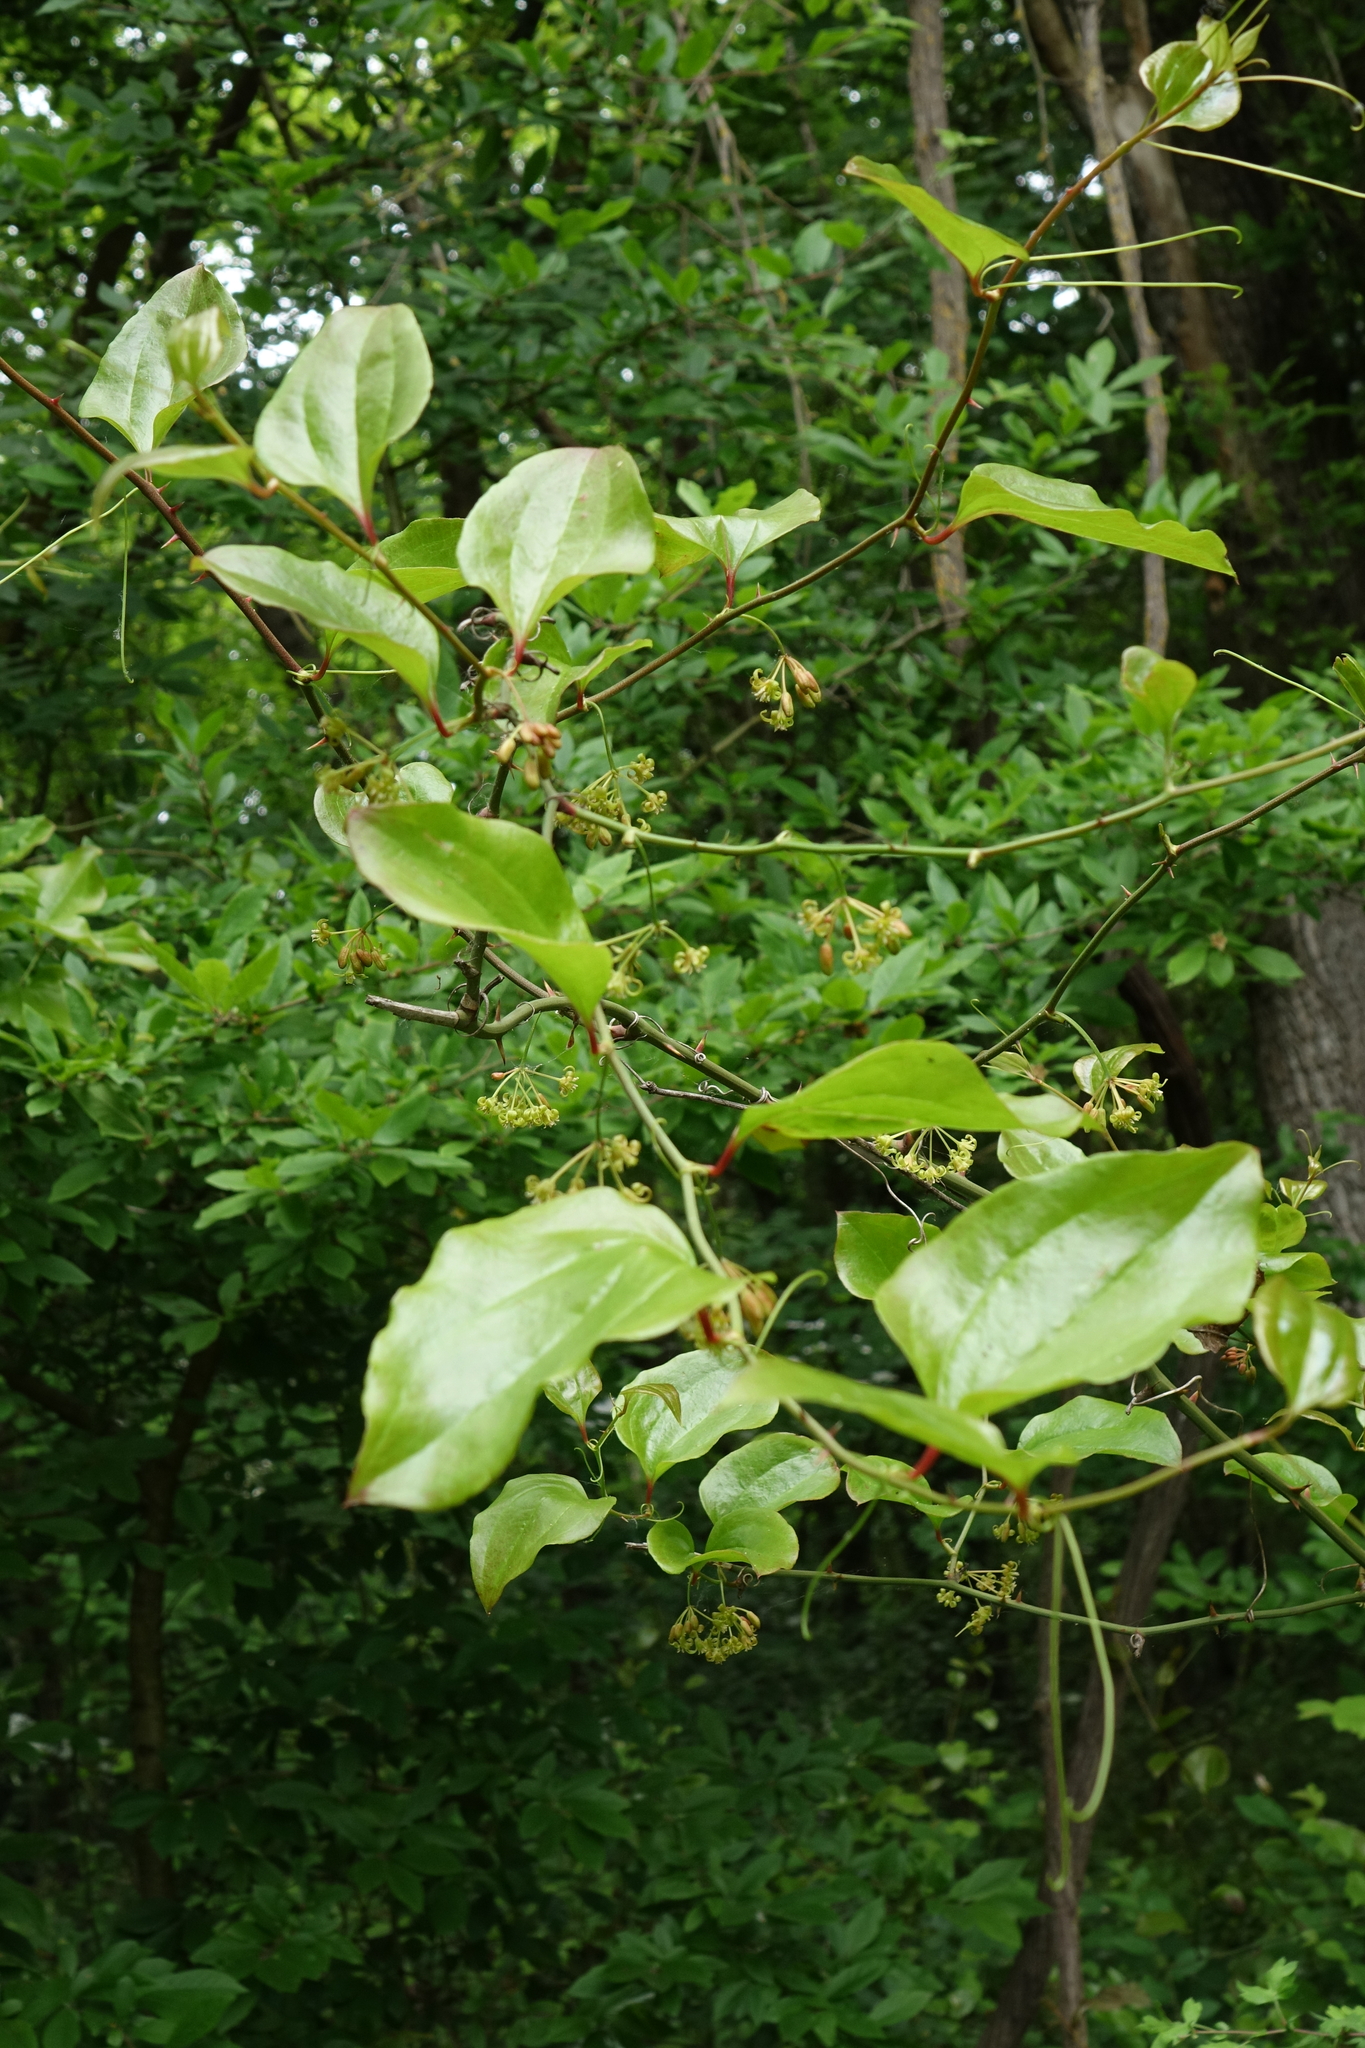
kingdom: Plantae
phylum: Tracheophyta
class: Liliopsida
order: Liliales
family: Smilacaceae
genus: Smilax
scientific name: Smilax excelsa
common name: Larger smilax
